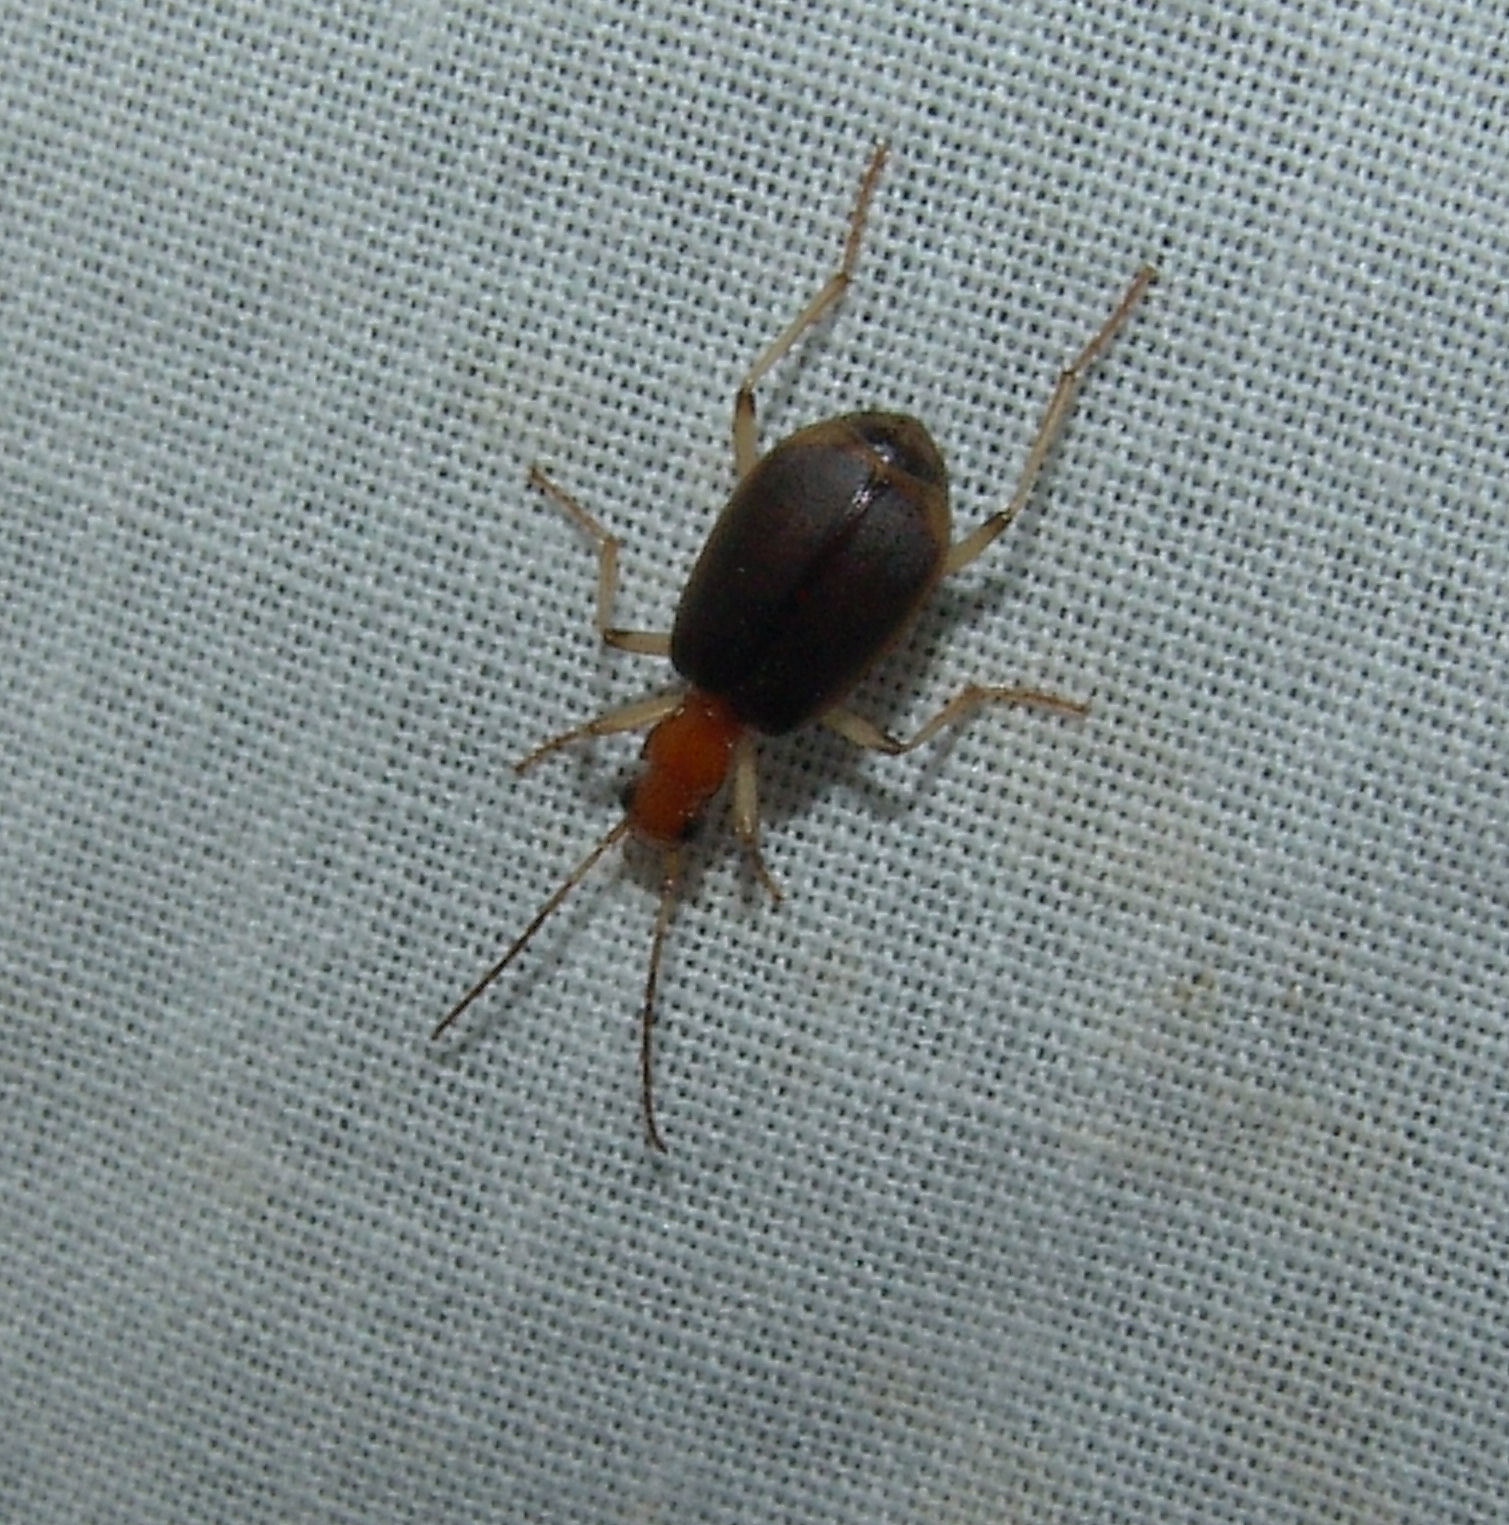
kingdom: Animalia
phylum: Arthropoda
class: Insecta
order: Coleoptera
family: Carabidae
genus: Brachinus
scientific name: Brachinus adustipennis
